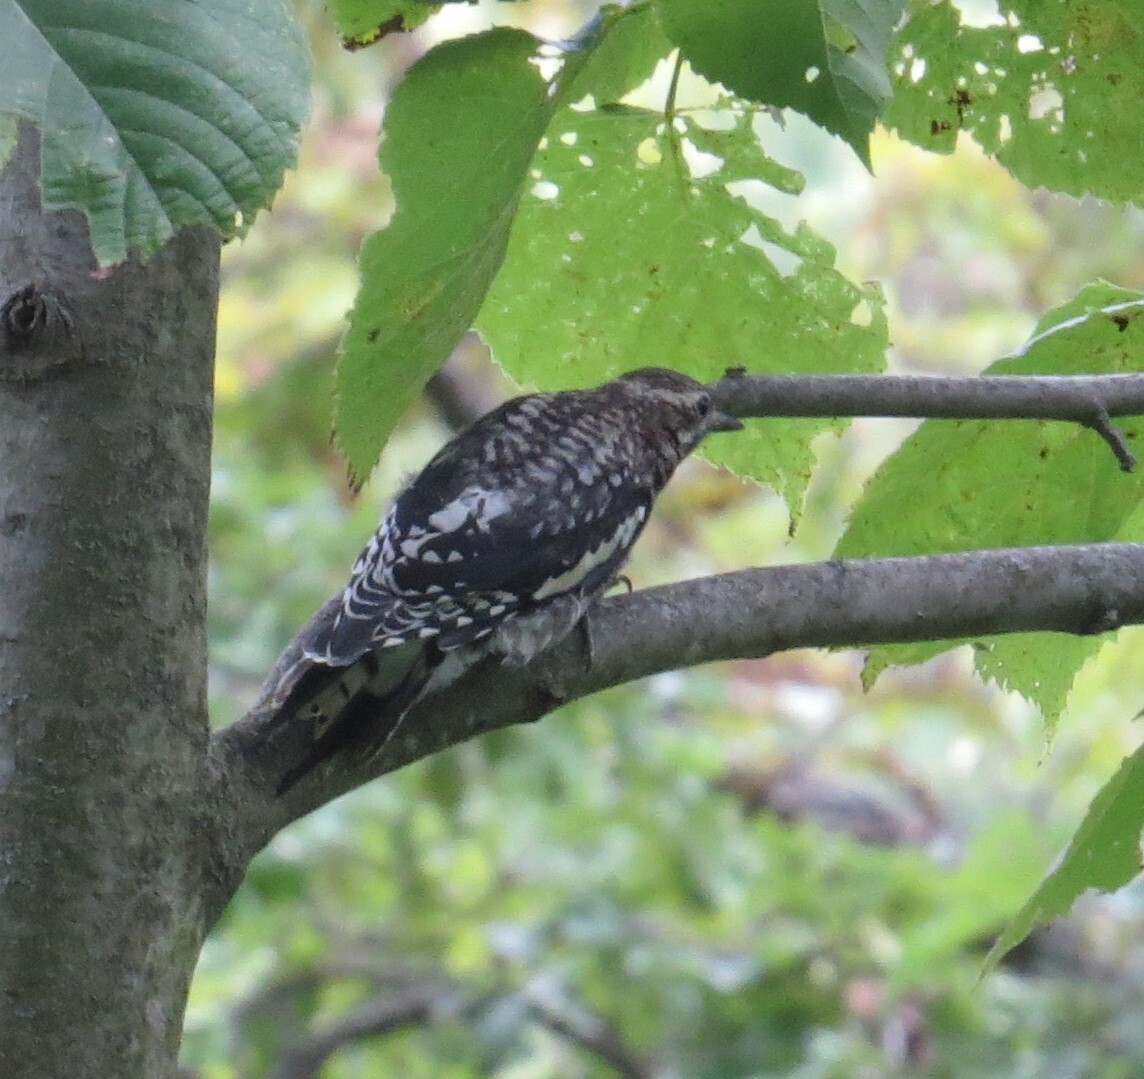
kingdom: Animalia
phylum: Chordata
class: Aves
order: Piciformes
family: Picidae
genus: Sphyrapicus
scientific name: Sphyrapicus varius
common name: Yellow-bellied sapsucker
